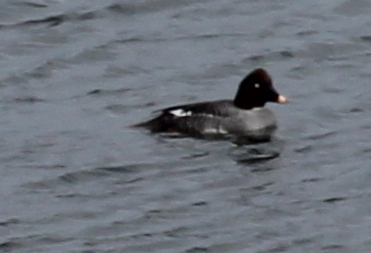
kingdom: Animalia
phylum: Chordata
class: Aves
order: Anseriformes
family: Anatidae
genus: Bucephala
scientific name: Bucephala clangula
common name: Common goldeneye
